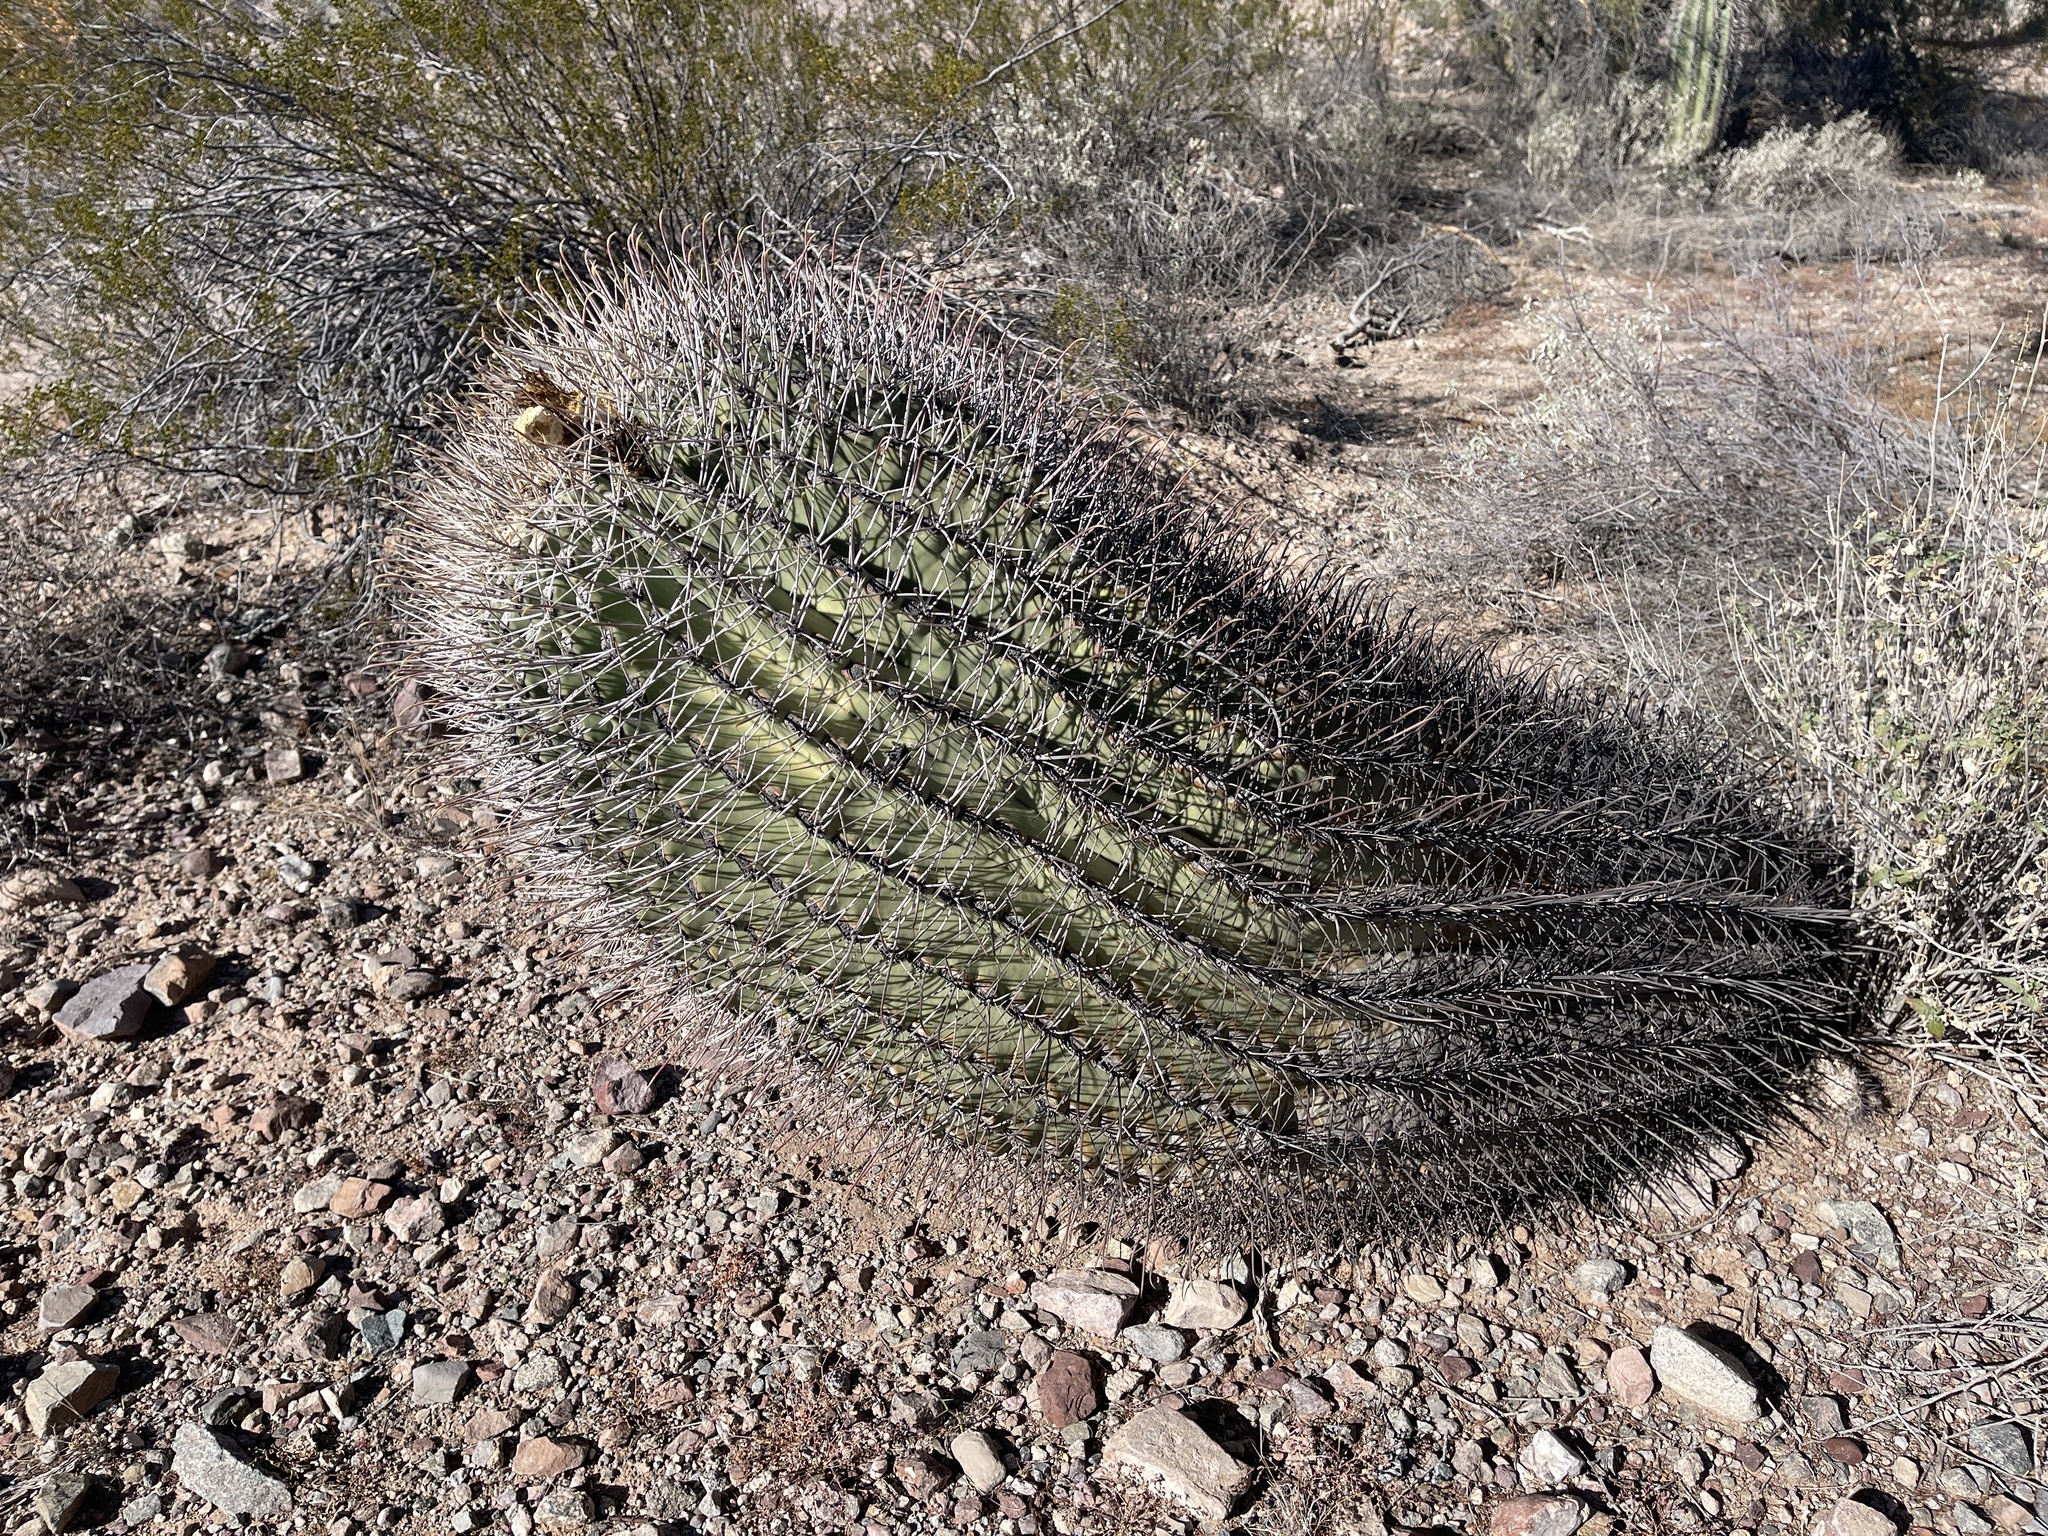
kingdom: Plantae
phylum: Tracheophyta
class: Magnoliopsida
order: Caryophyllales
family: Cactaceae
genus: Ferocactus
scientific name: Ferocactus wislizeni
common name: Candy barrel cactus
